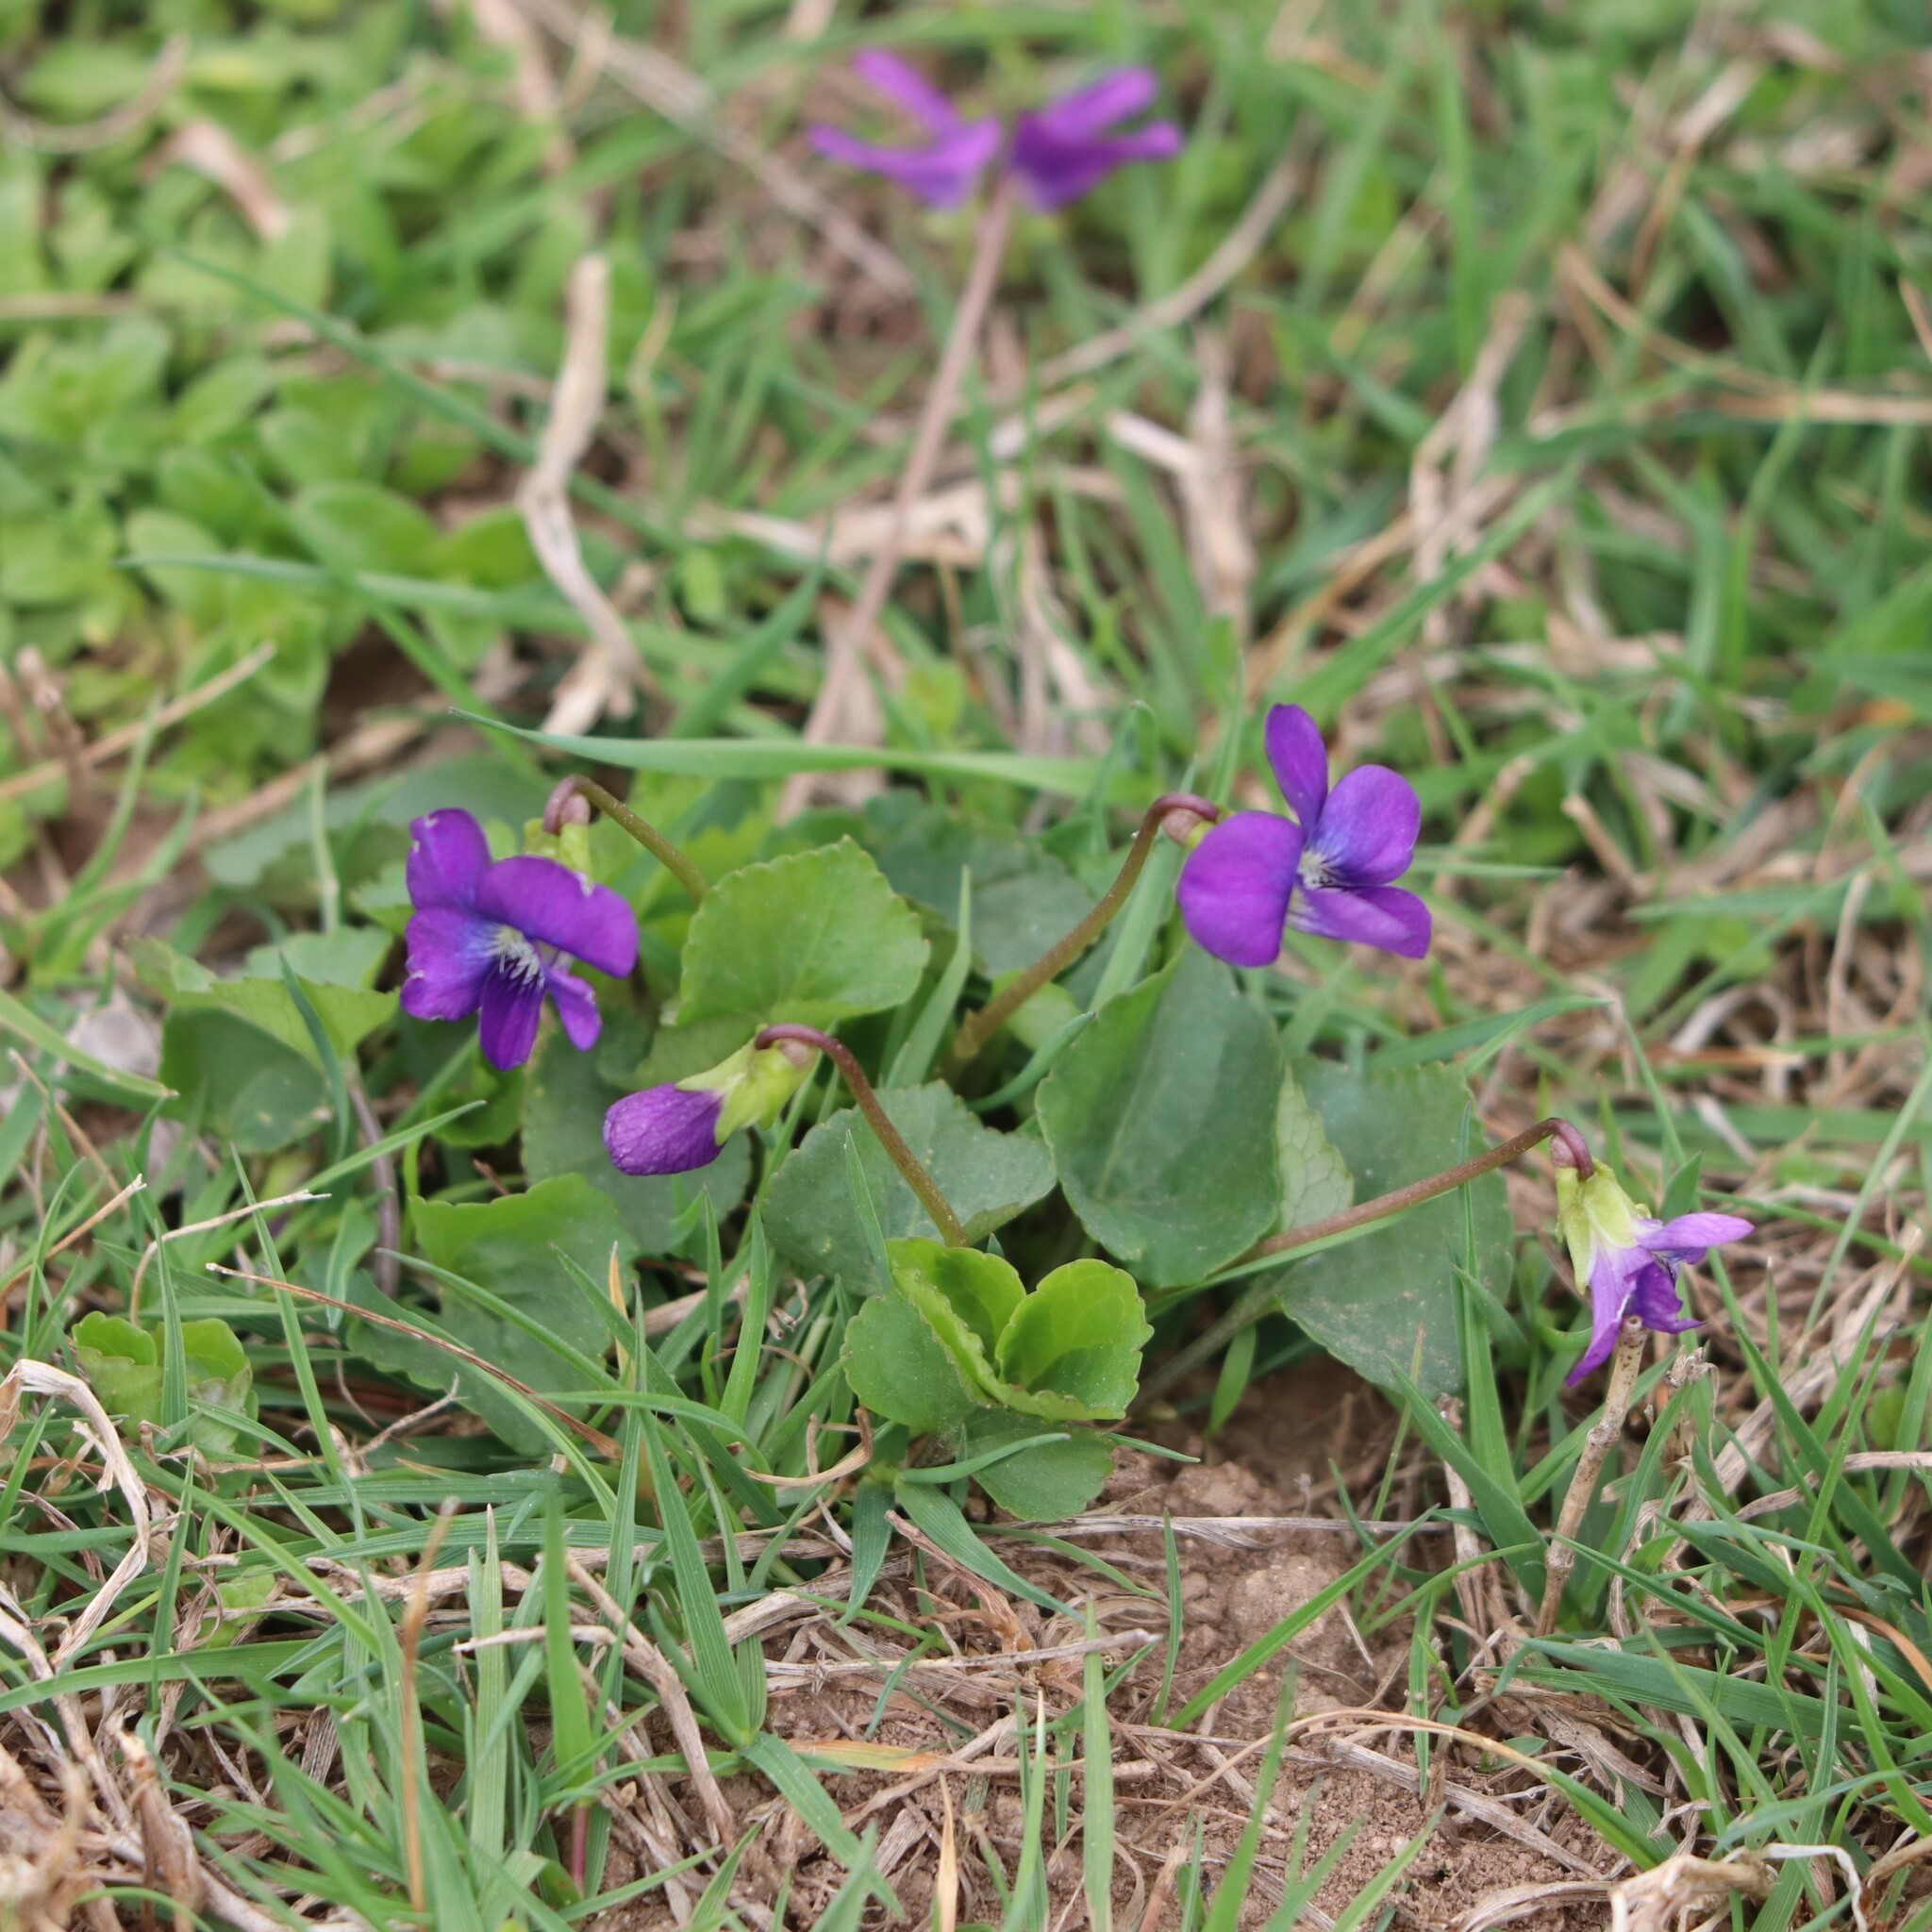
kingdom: Plantae
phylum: Tracheophyta
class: Magnoliopsida
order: Malpighiales
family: Violaceae
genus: Viola
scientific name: Viola sororia
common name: Dooryard violet
